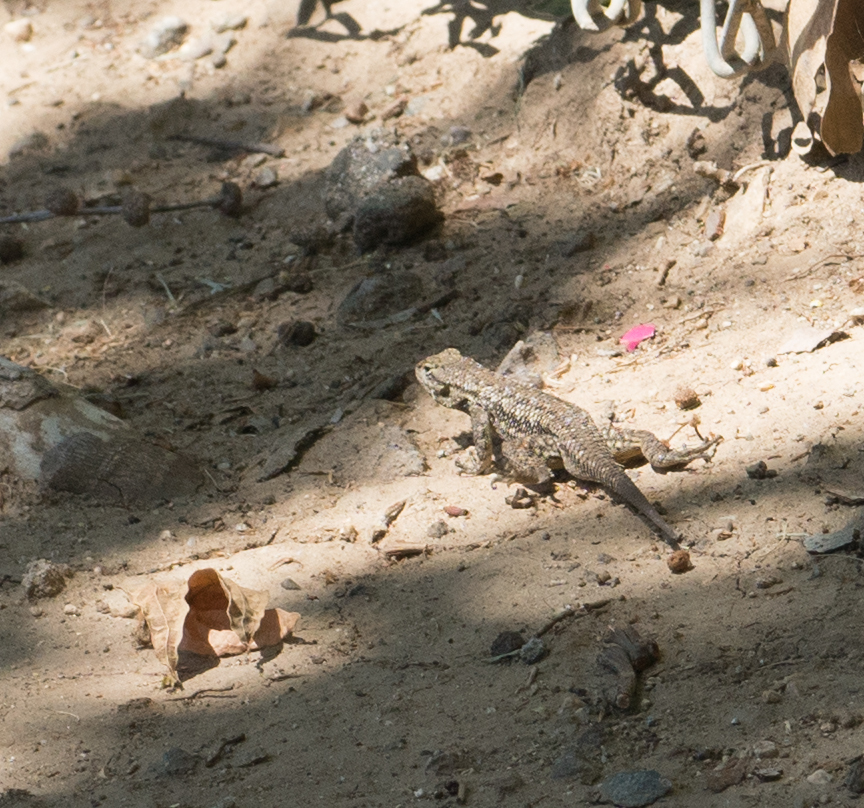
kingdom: Animalia
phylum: Chordata
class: Squamata
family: Phrynosomatidae
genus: Sceloporus
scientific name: Sceloporus occidentalis
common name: Western fence lizard
